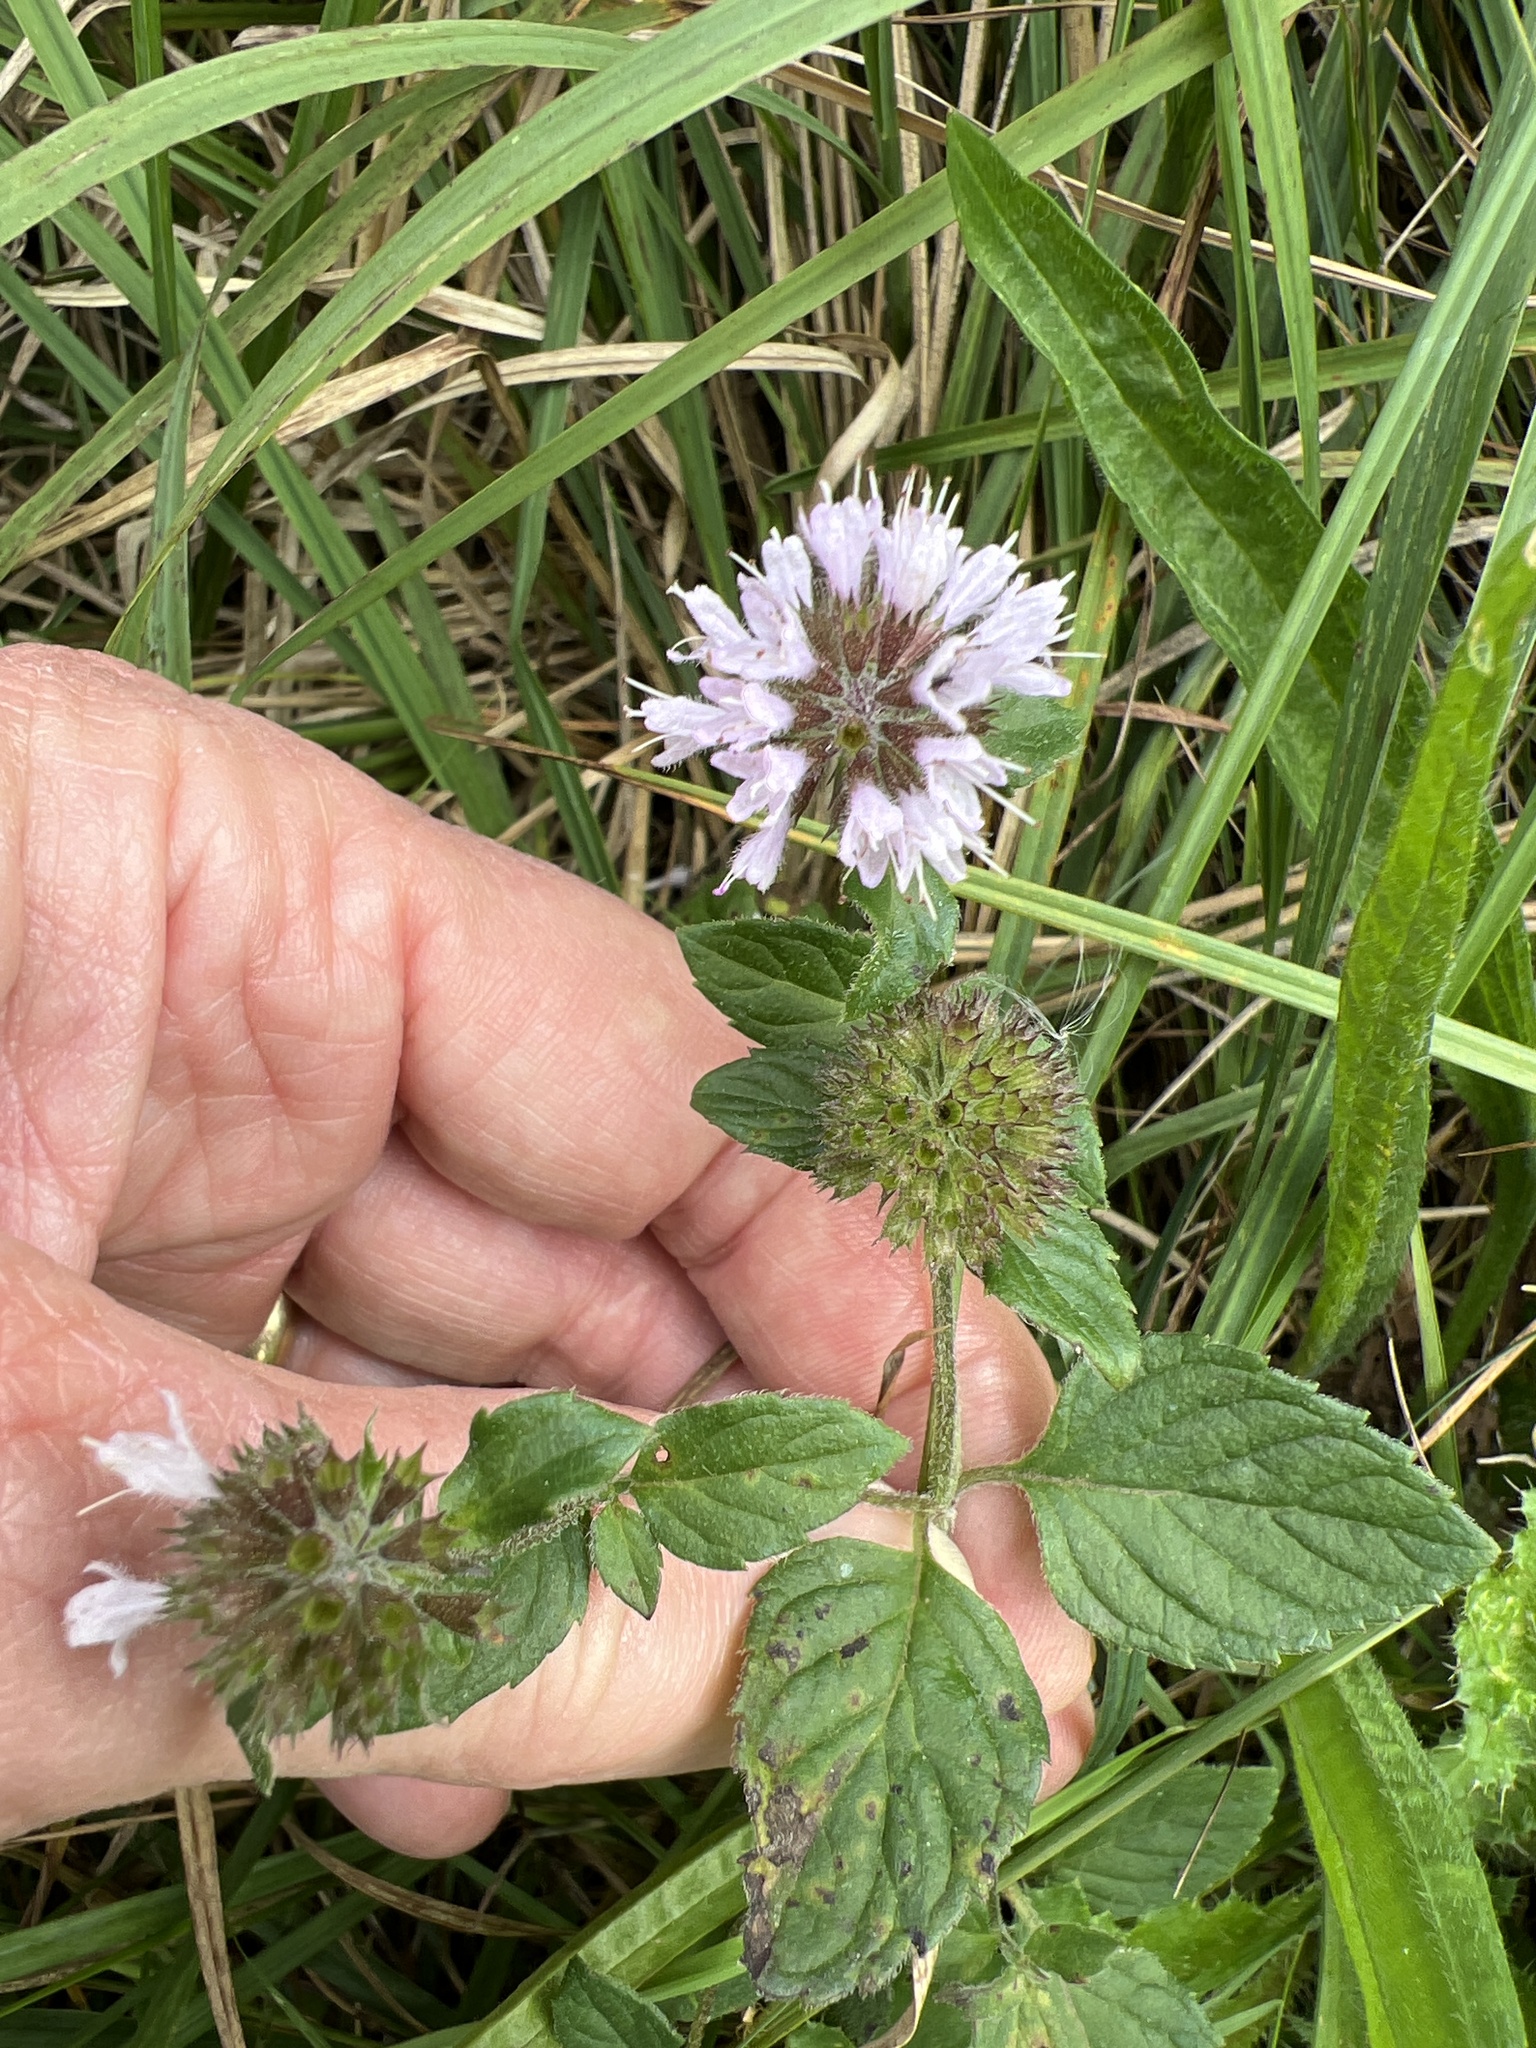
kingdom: Plantae
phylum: Tracheophyta
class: Magnoliopsida
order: Lamiales
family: Lamiaceae
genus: Mentha
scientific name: Mentha aquatica
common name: Water mint
